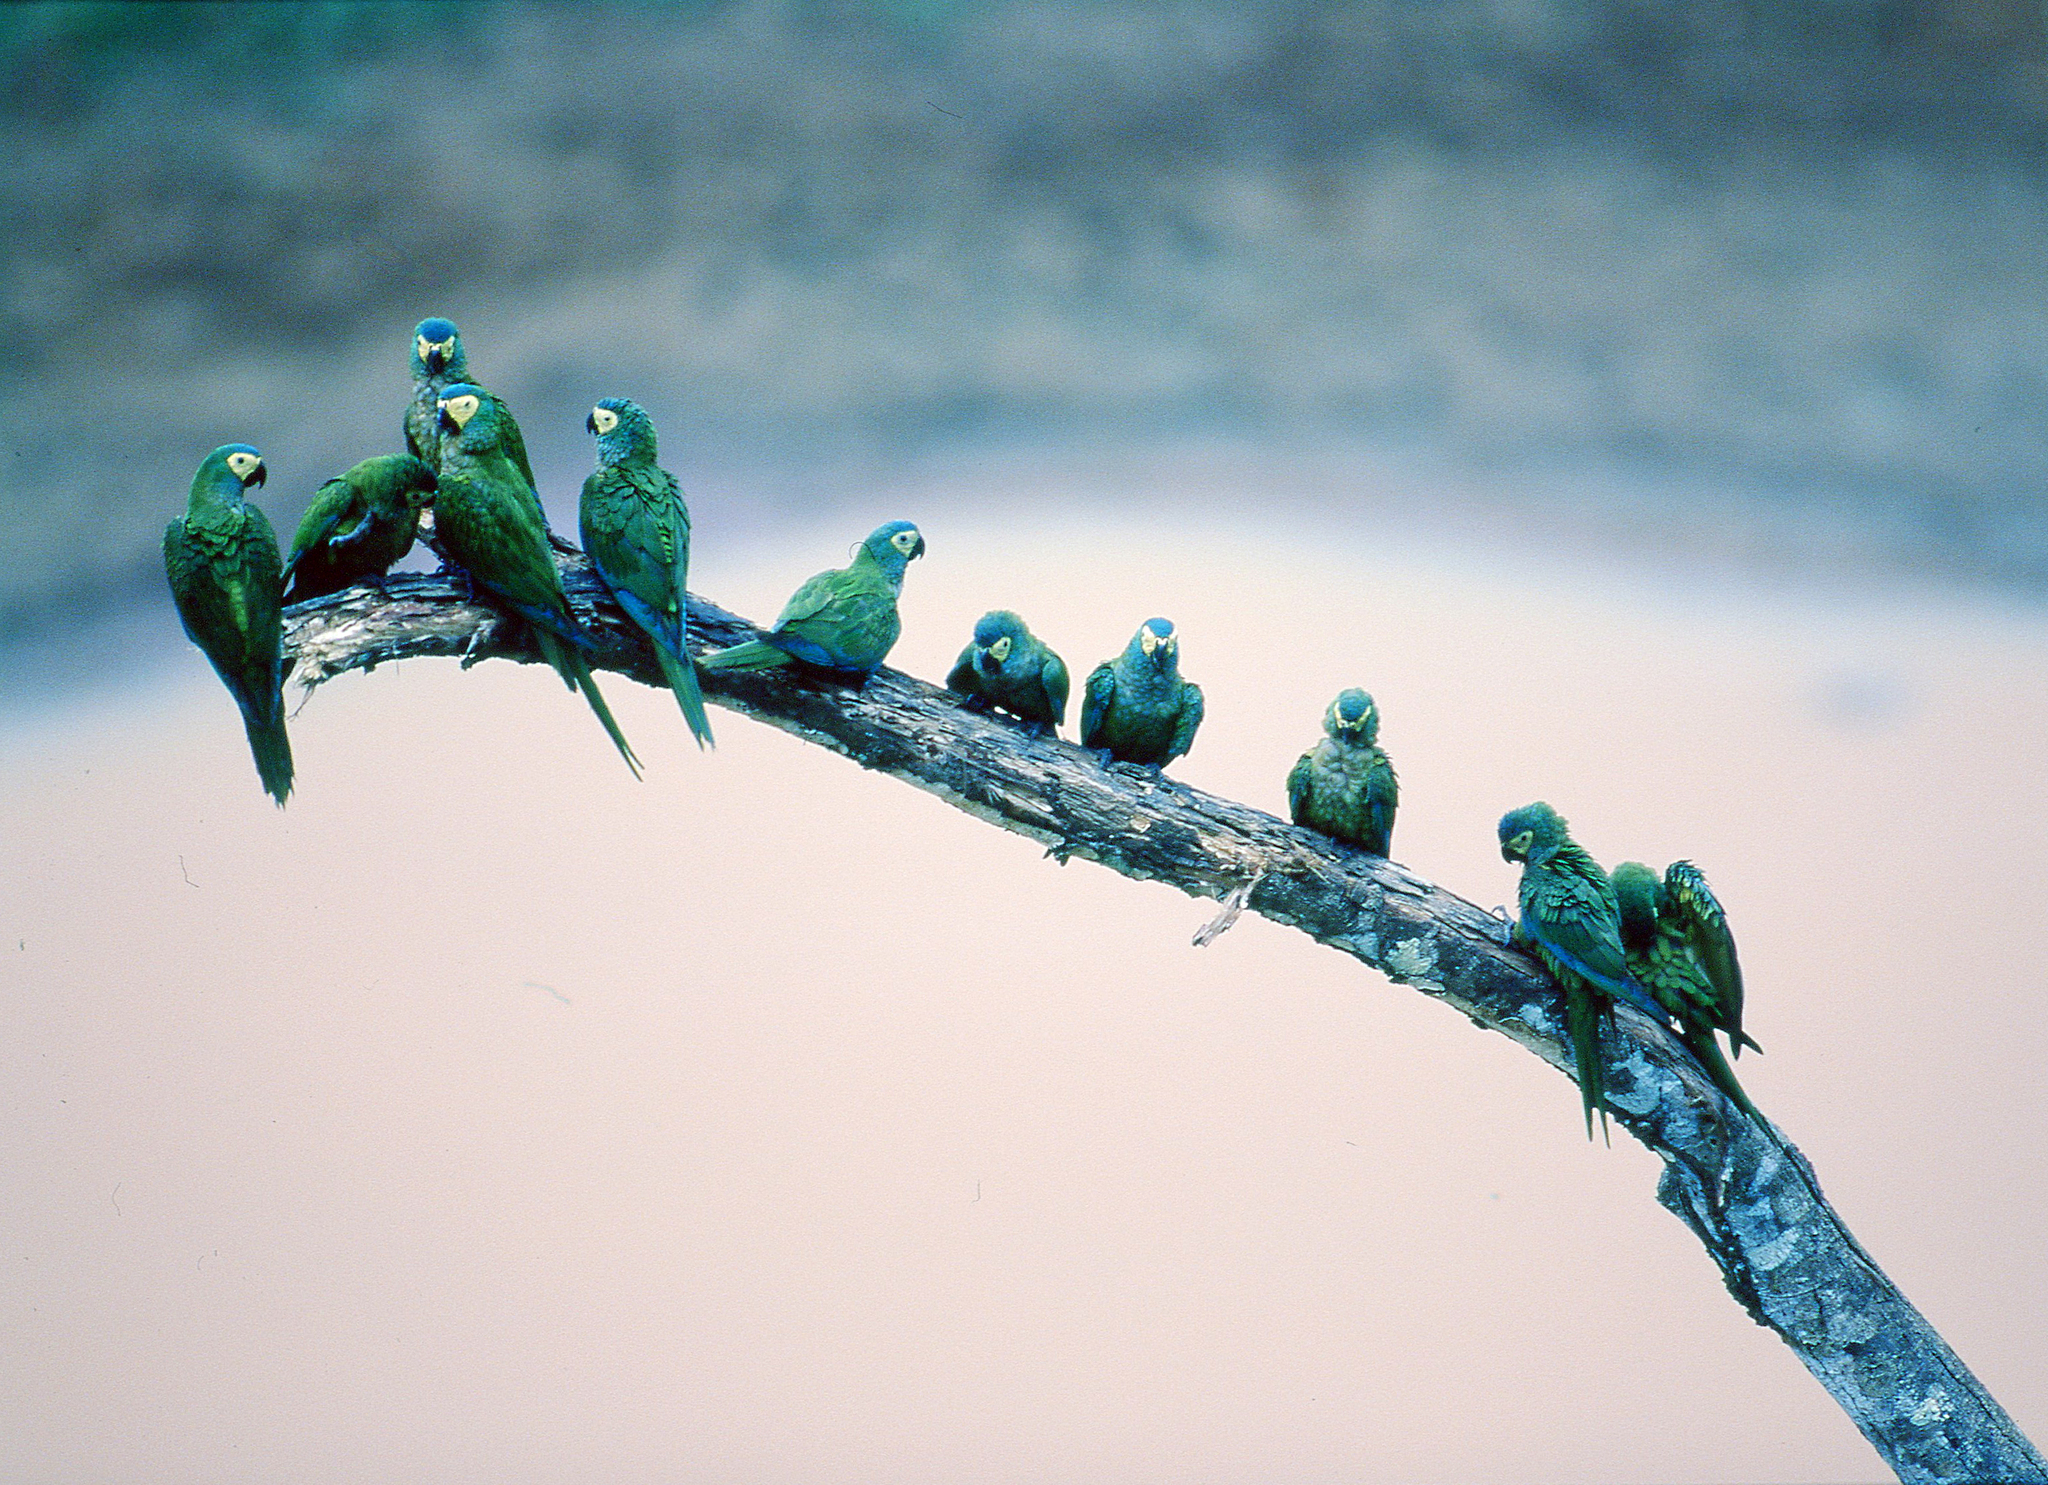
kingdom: Animalia
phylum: Chordata
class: Aves
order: Psittaciformes
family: Psittacidae
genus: Orthopsittaca
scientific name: Orthopsittaca manilata
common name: Red-bellied macaw
